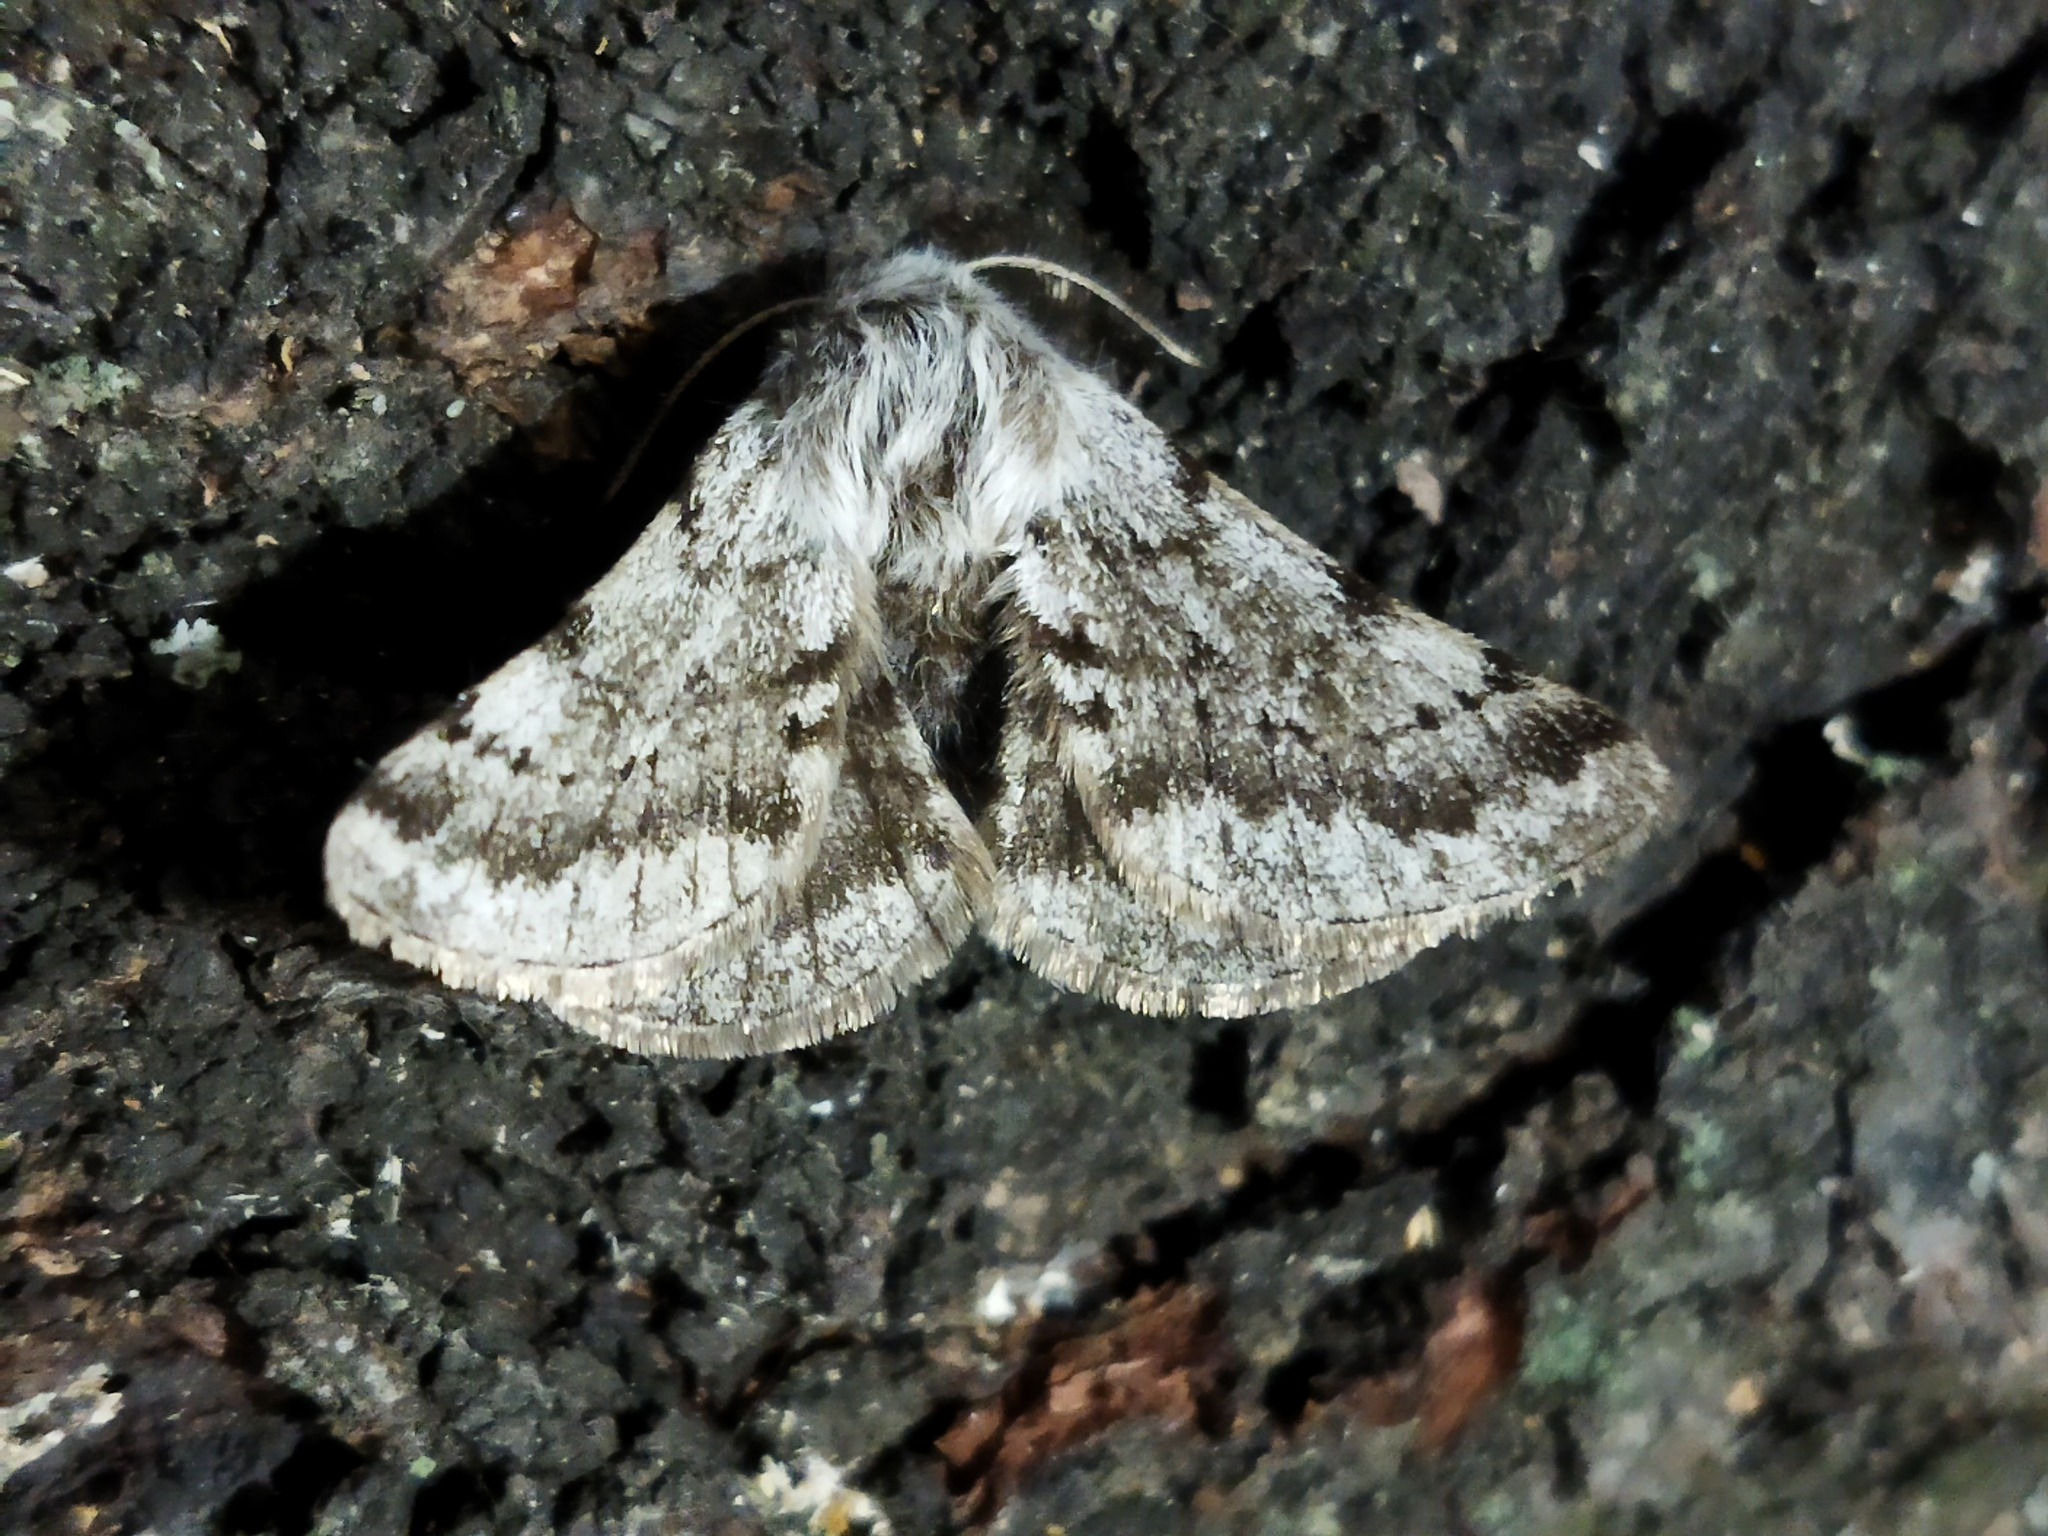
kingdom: Animalia
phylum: Arthropoda
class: Insecta
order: Lepidoptera
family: Geometridae
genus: Lycia
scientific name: Lycia graecarius
